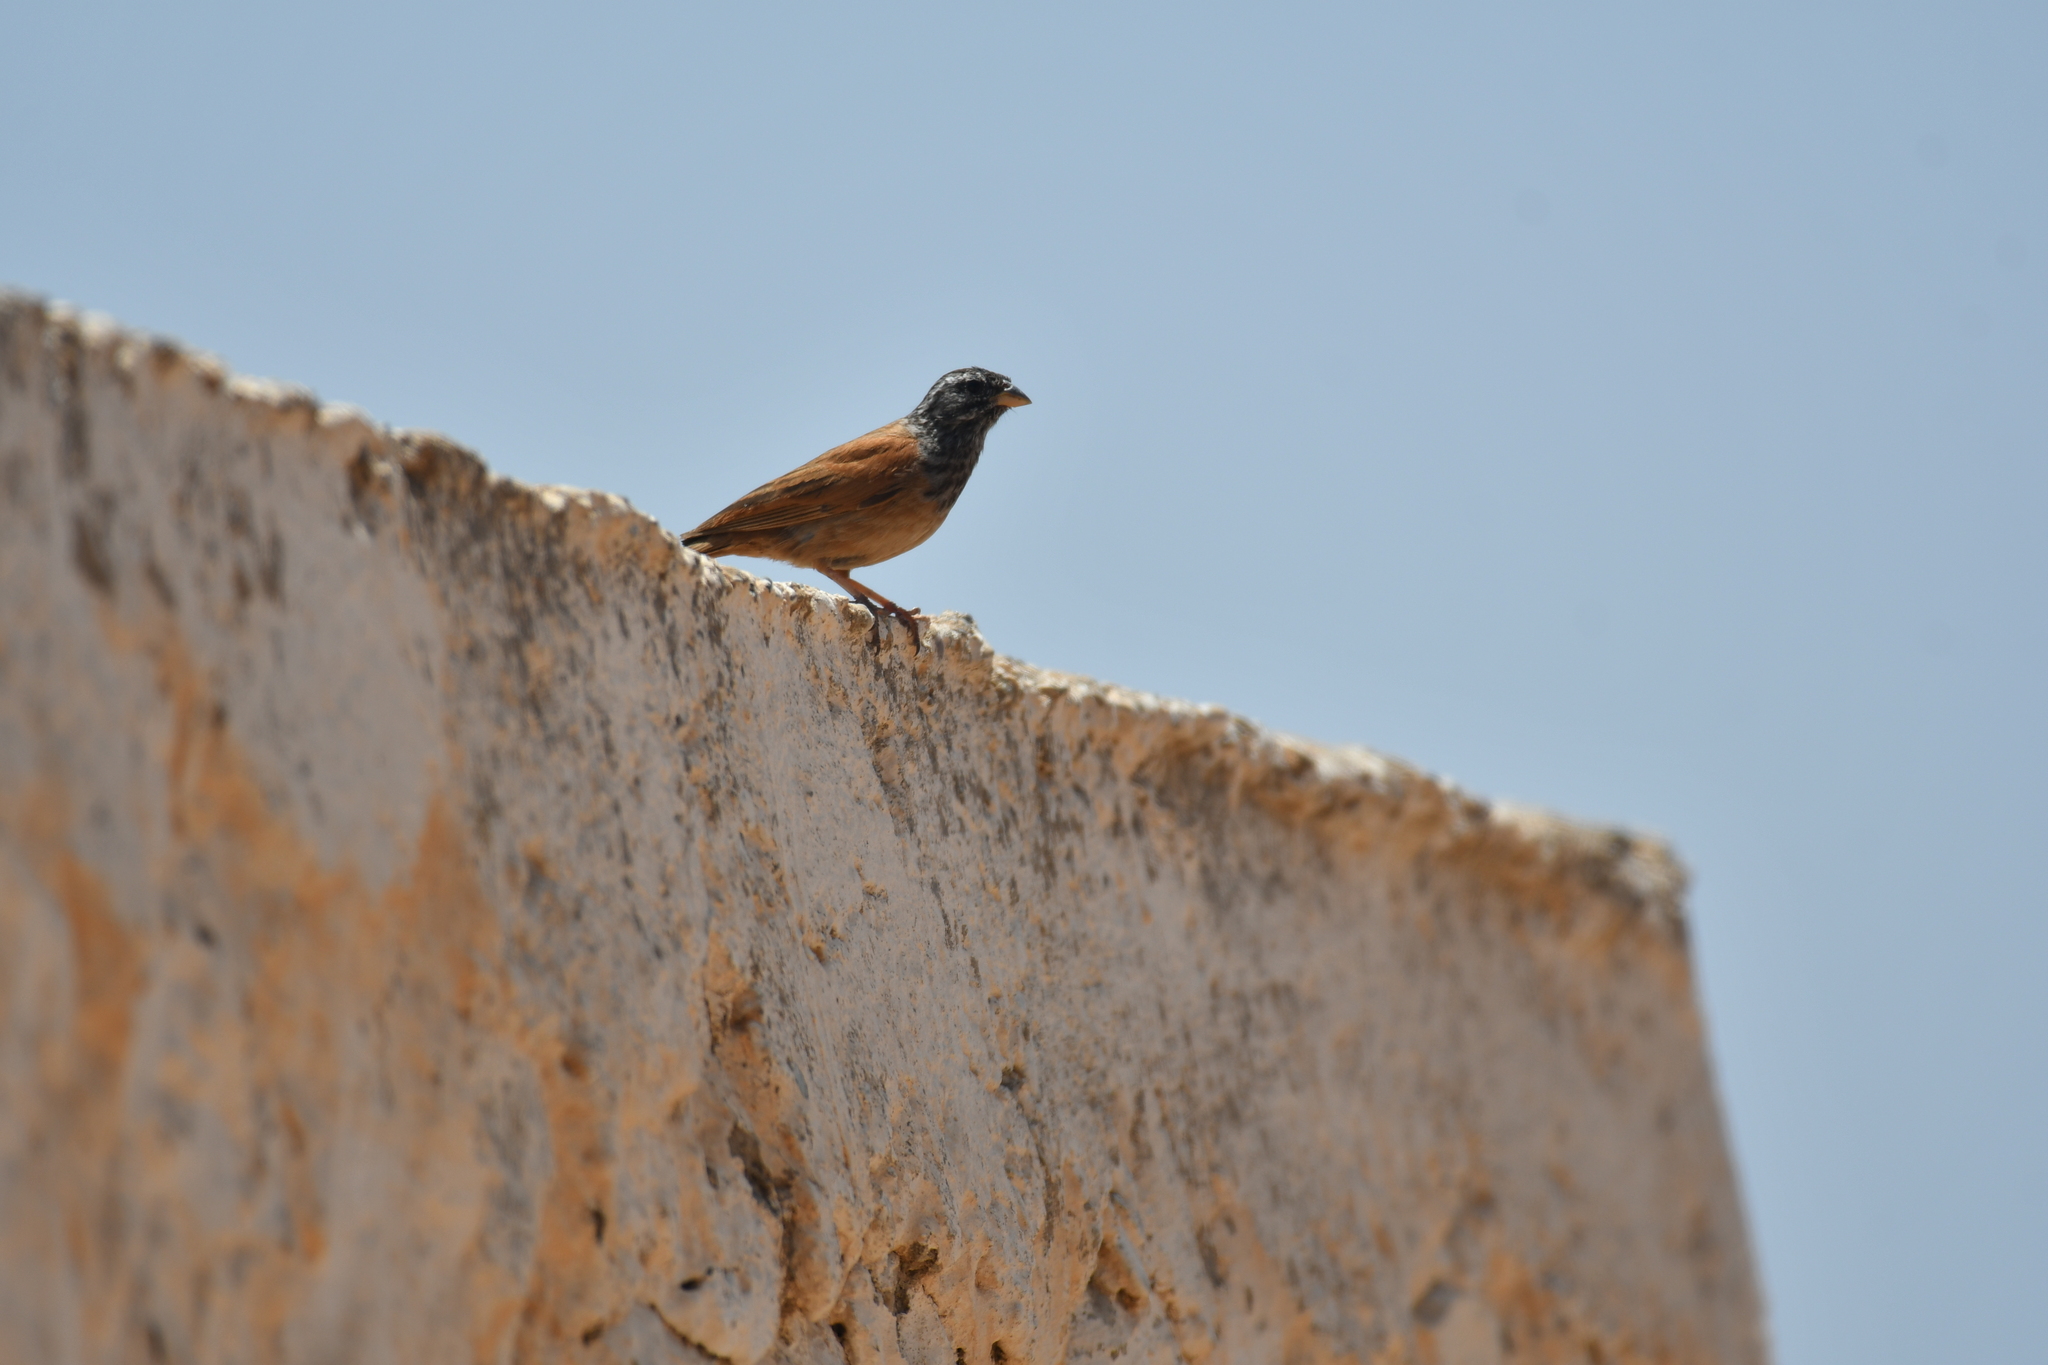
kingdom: Animalia
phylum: Chordata
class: Aves
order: Passeriformes
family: Emberizidae
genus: Emberiza
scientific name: Emberiza sahari
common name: House bunting
